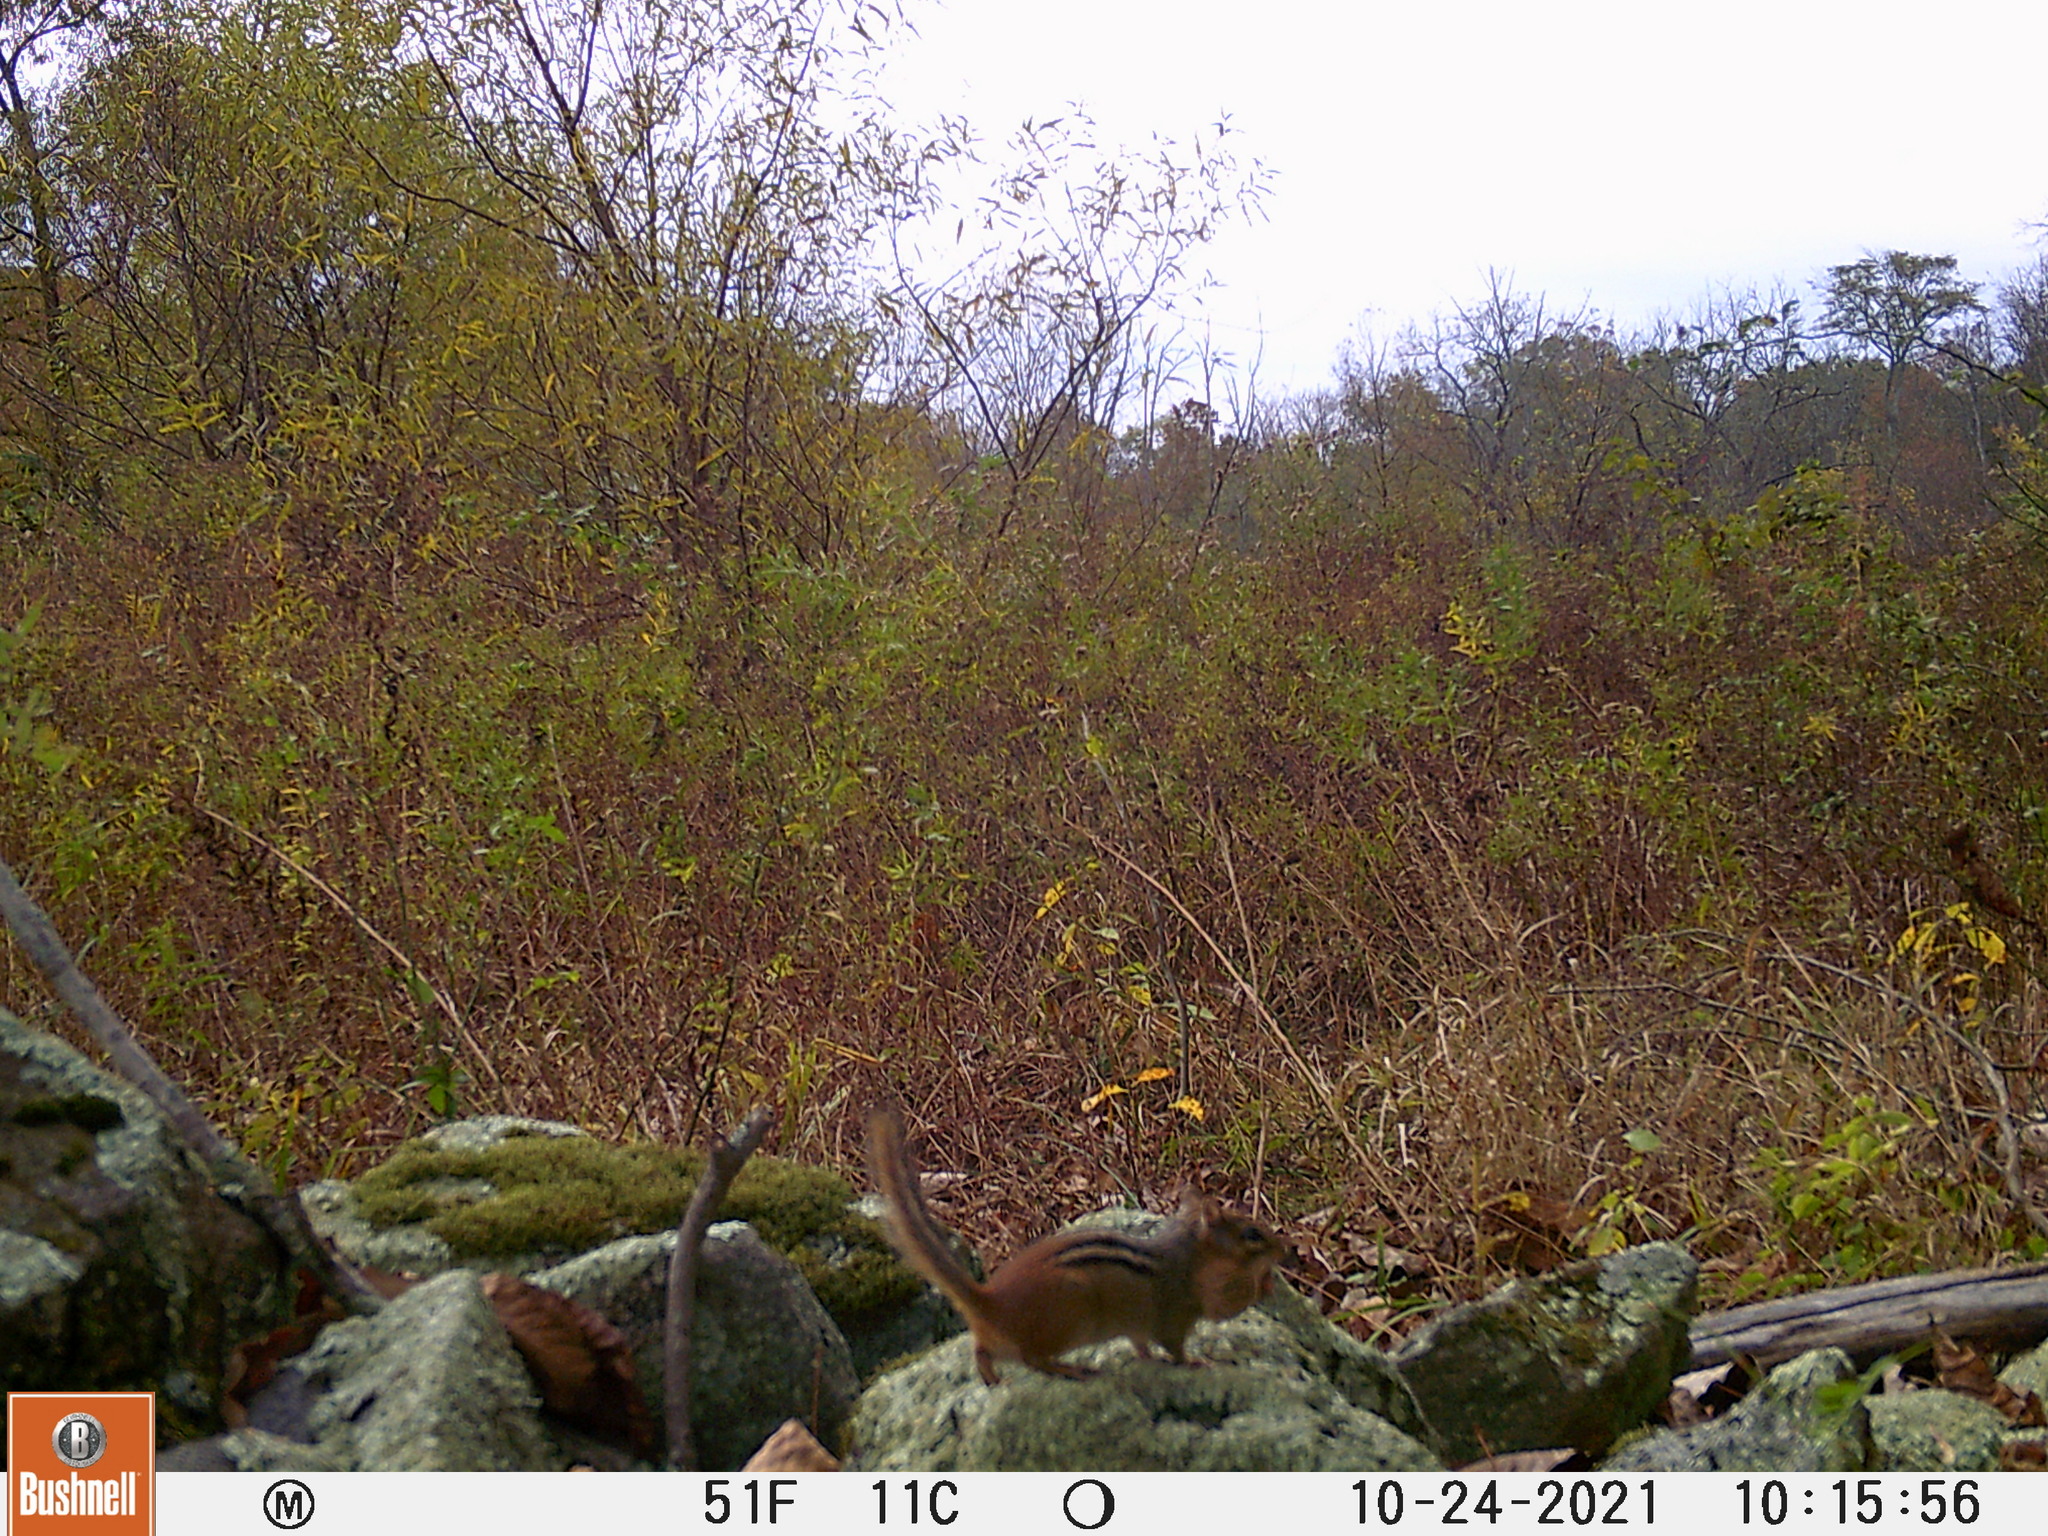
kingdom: Animalia
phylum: Chordata
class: Mammalia
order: Rodentia
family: Sciuridae
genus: Tamias
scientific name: Tamias striatus
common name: Eastern chipmunk
